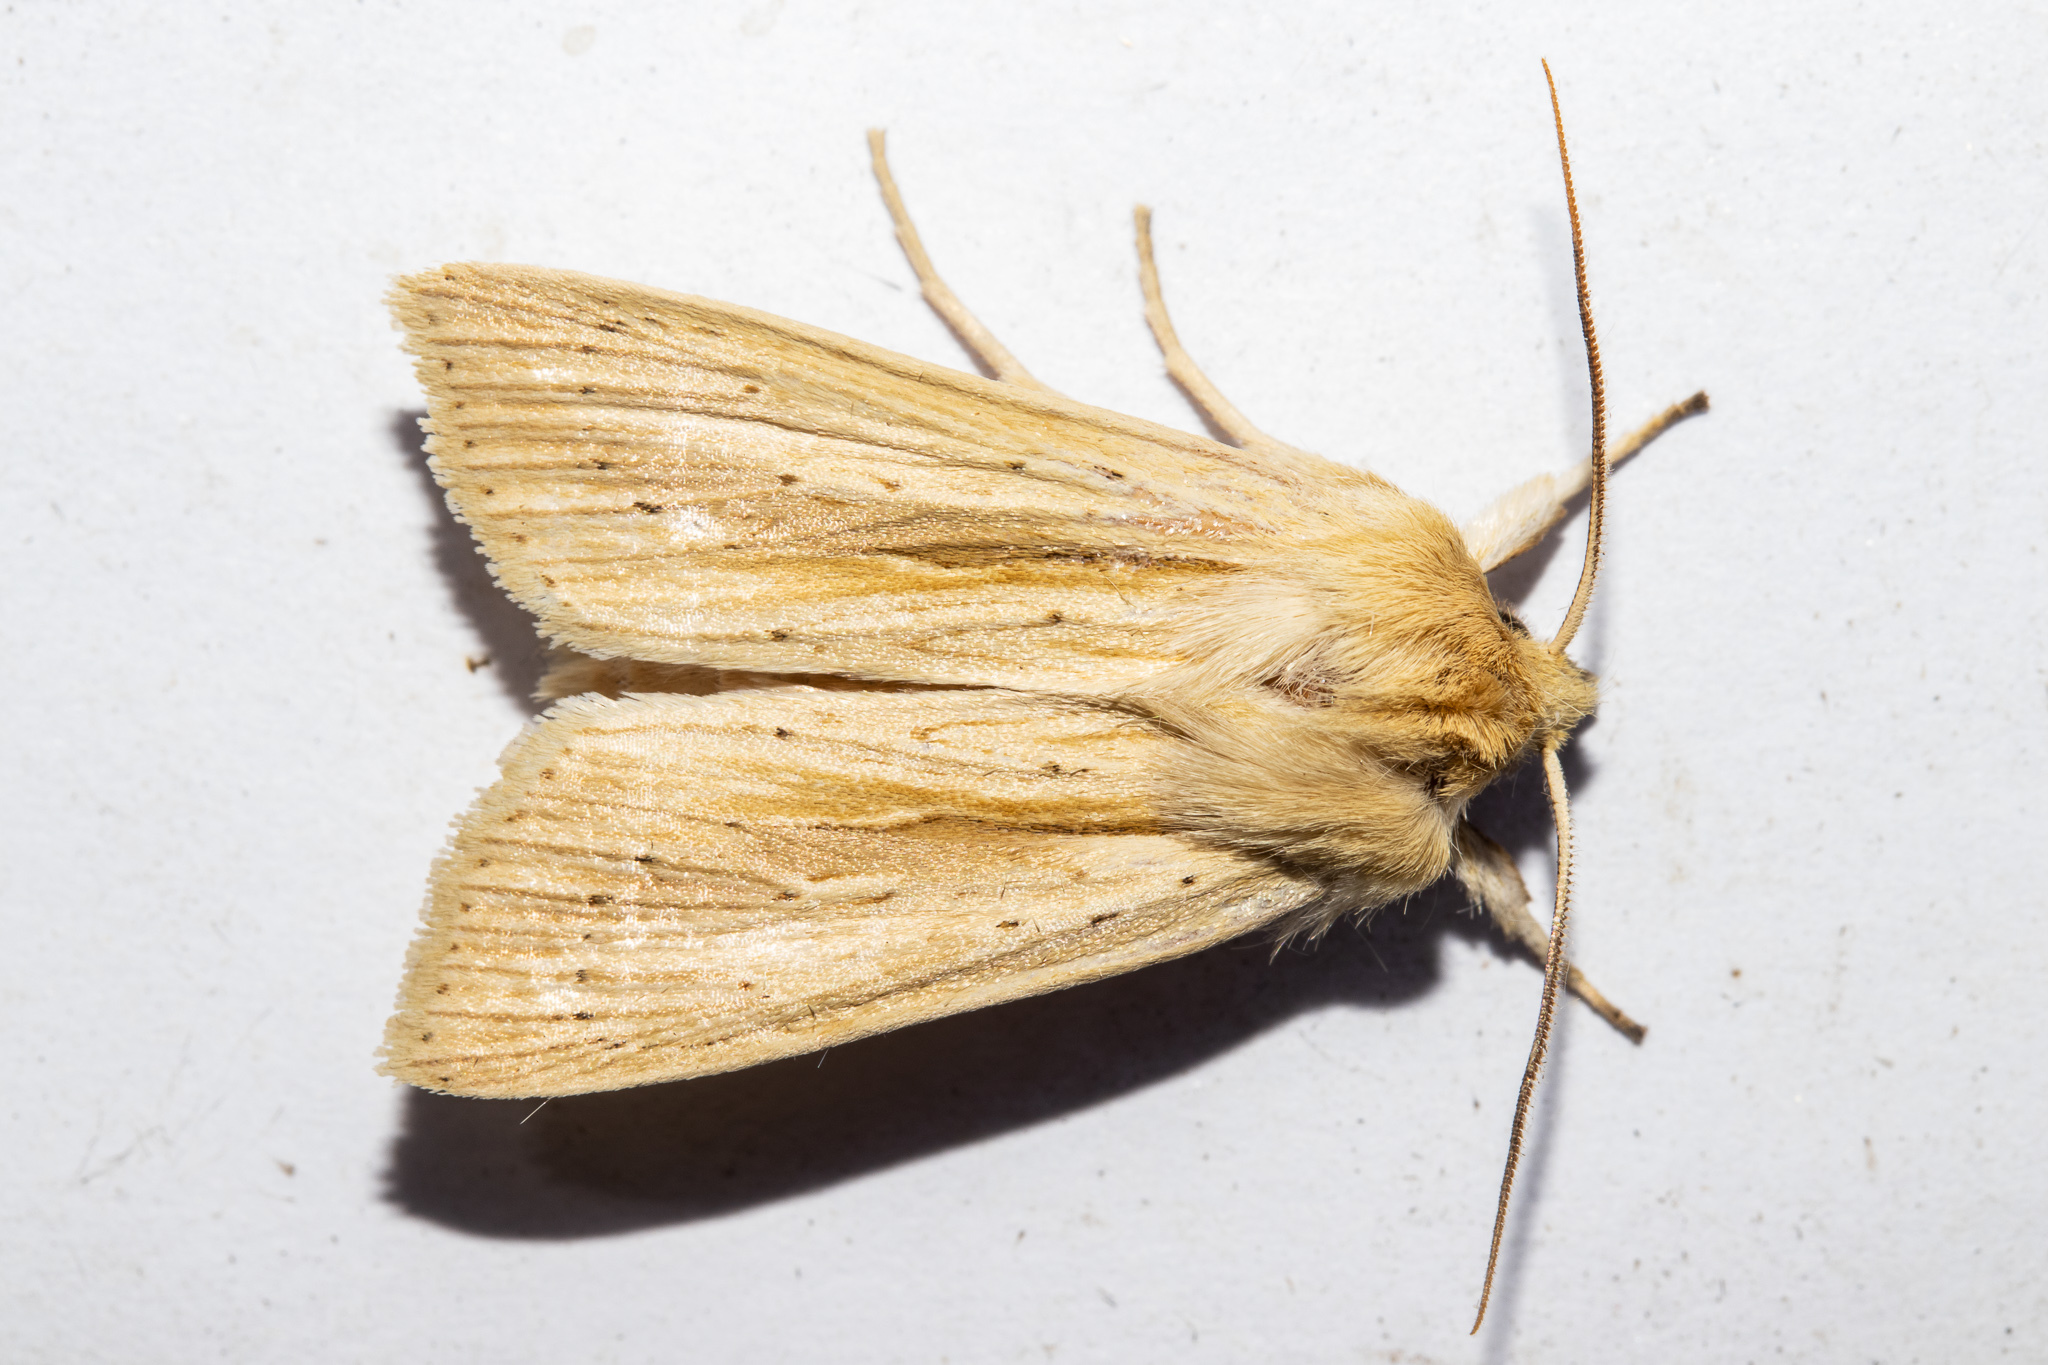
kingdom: Animalia
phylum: Arthropoda
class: Insecta
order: Lepidoptera
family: Noctuidae
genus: Ichneutica
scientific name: Ichneutica semivittata
